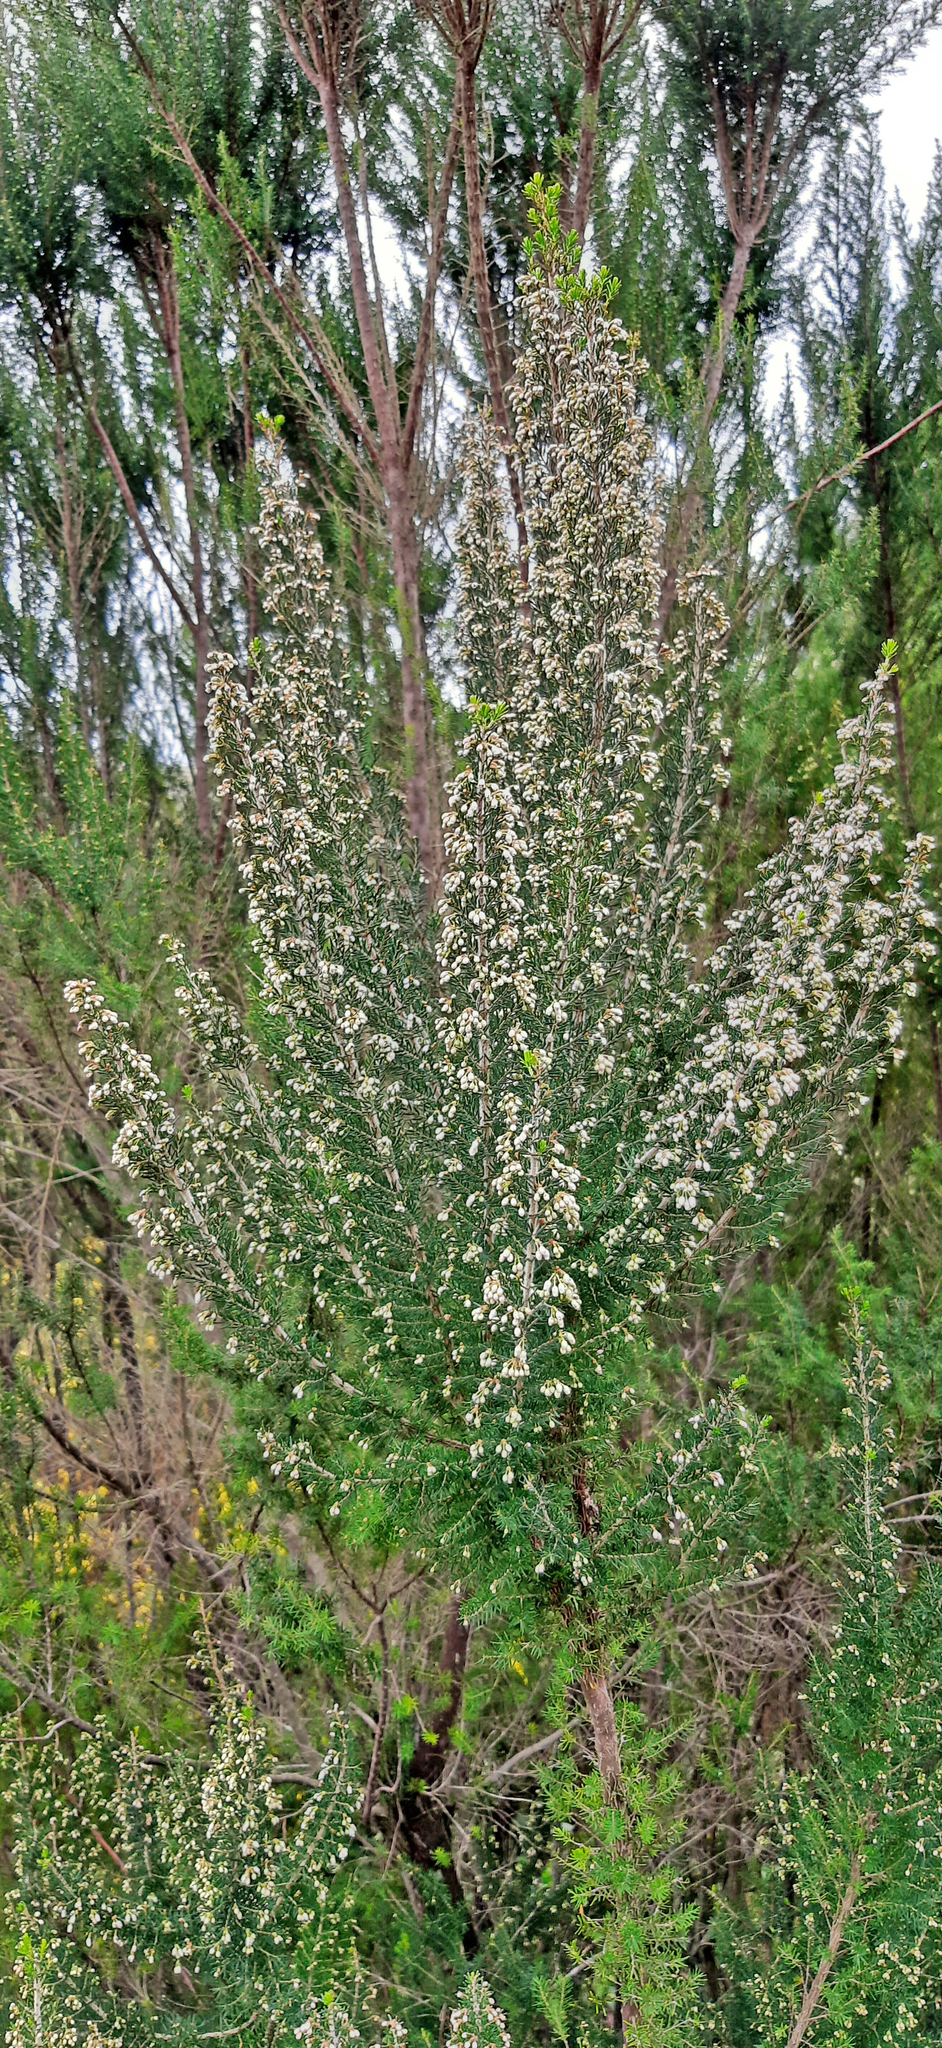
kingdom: Plantae
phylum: Tracheophyta
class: Magnoliopsida
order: Ericales
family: Ericaceae
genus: Erica
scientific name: Erica canariensis
